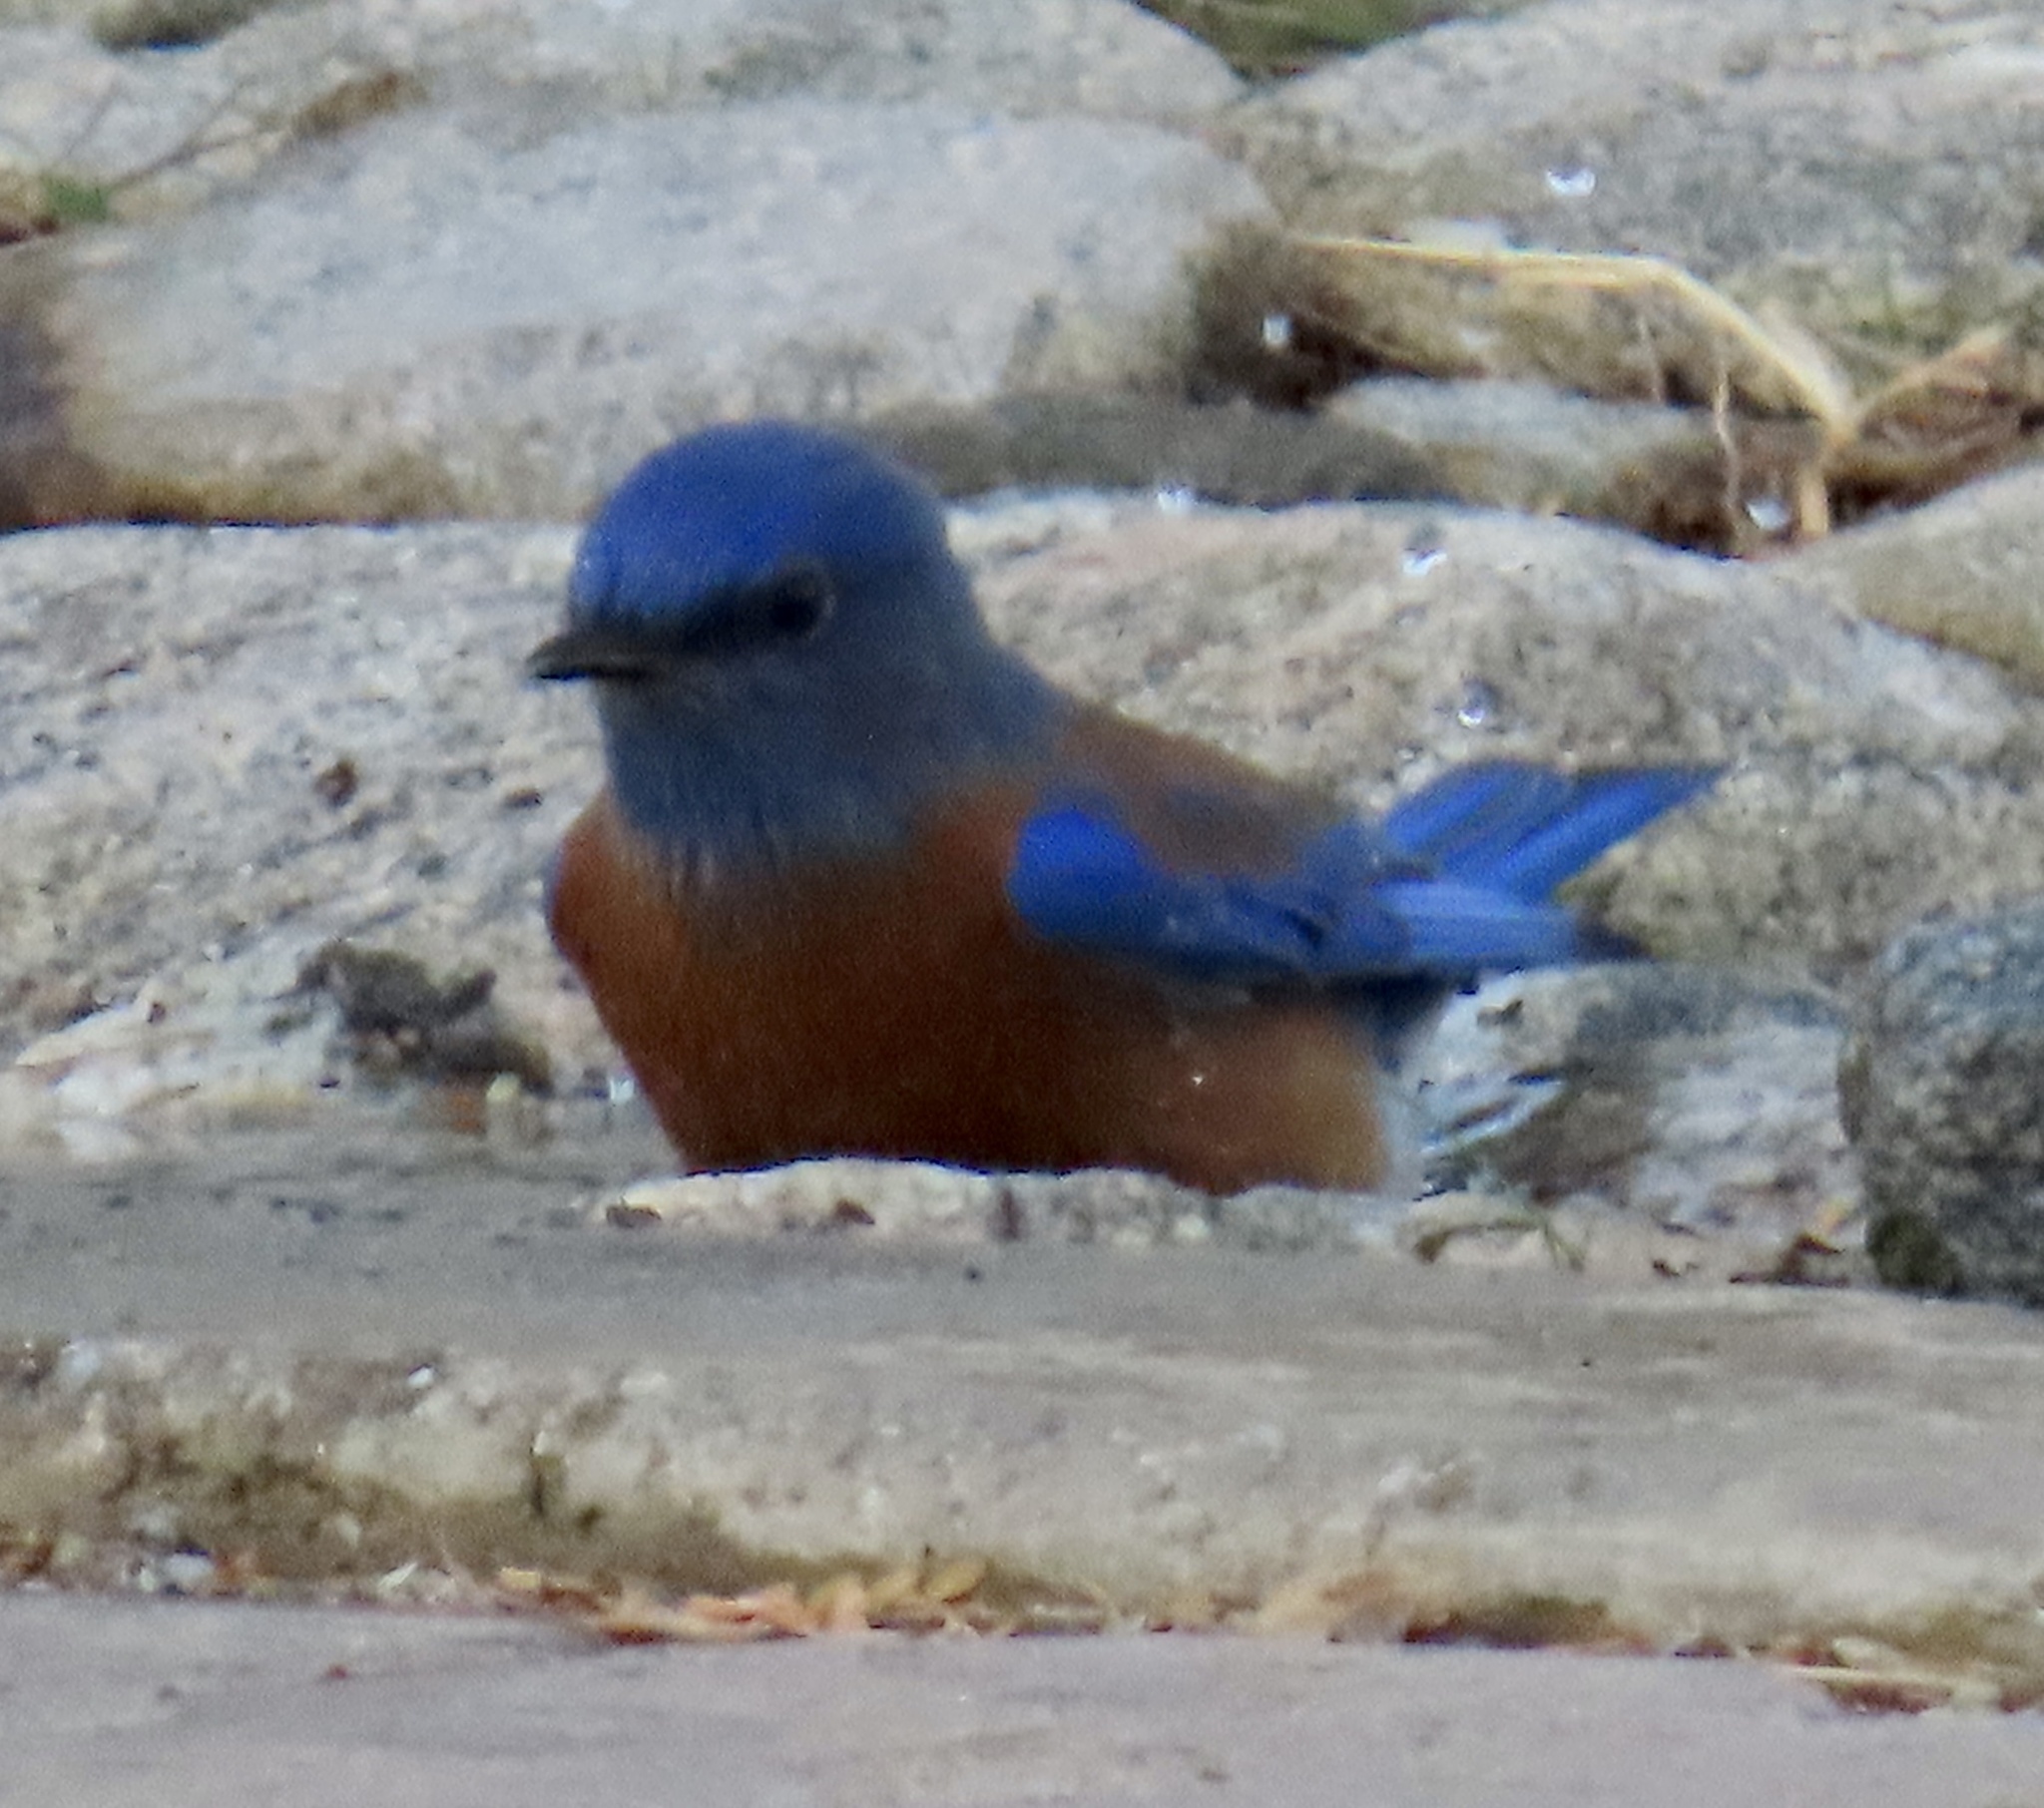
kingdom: Animalia
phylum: Chordata
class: Aves
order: Passeriformes
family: Turdidae
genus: Sialia
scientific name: Sialia mexicana
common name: Western bluebird
